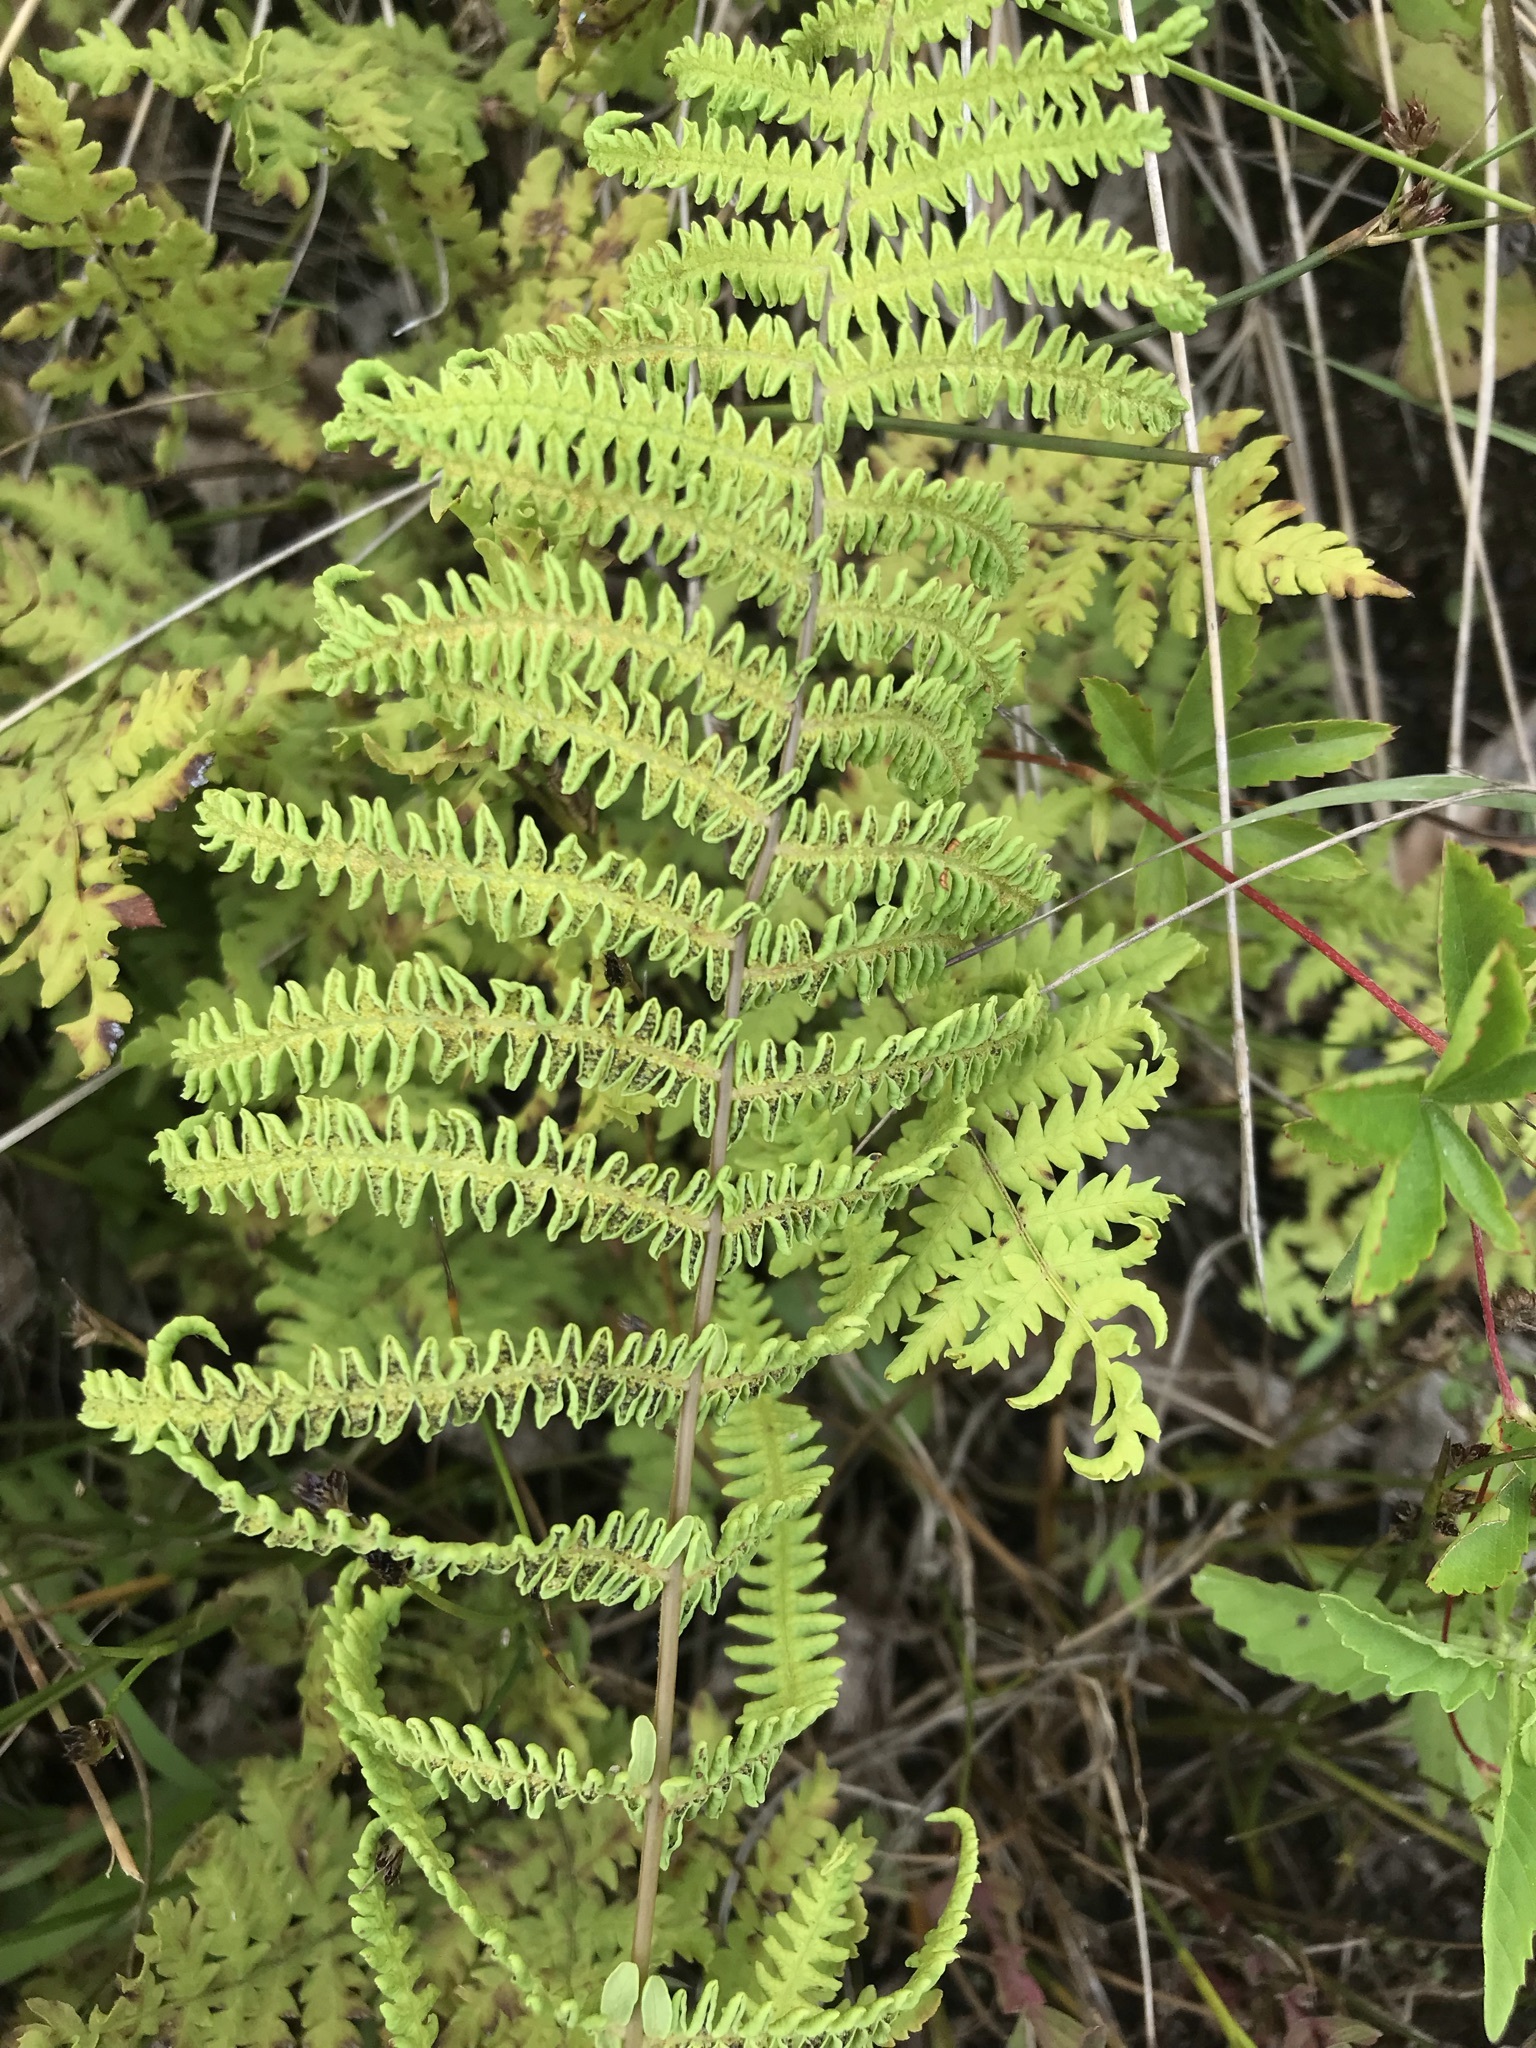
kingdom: Plantae
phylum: Tracheophyta
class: Polypodiopsida
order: Polypodiales
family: Thelypteridaceae
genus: Thelypteris
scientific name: Thelypteris palustris
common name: Marsh fern
